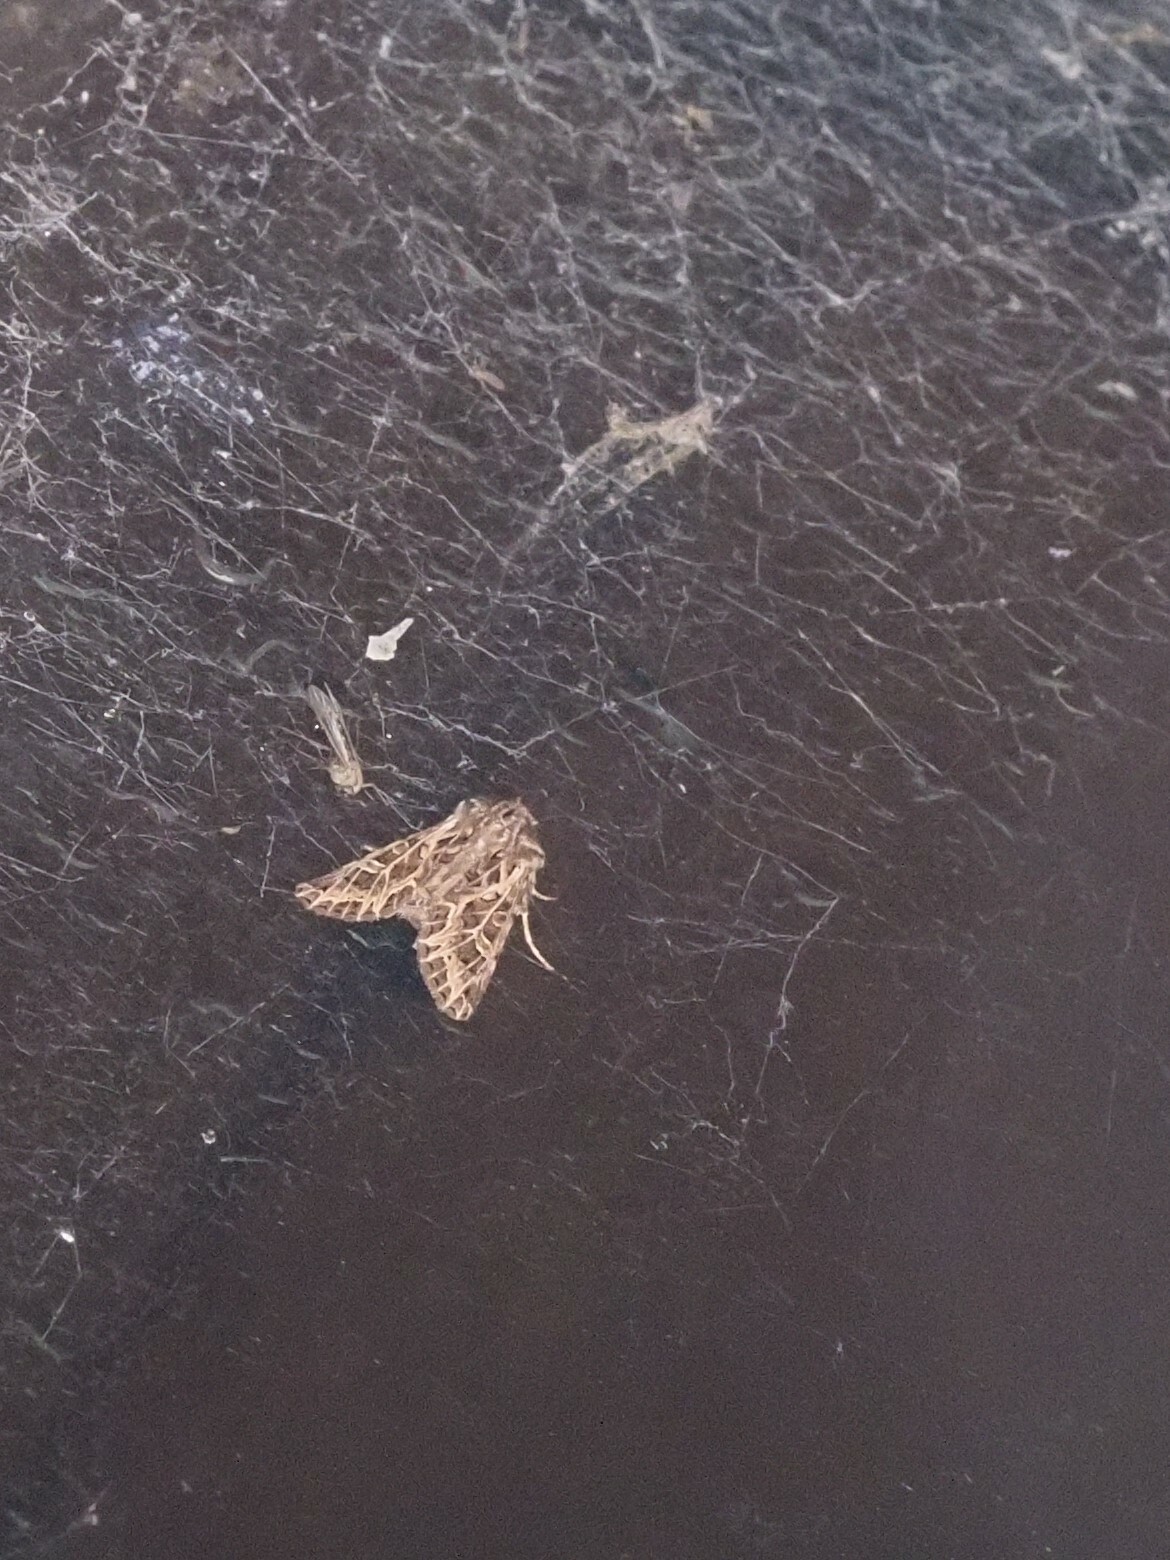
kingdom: Animalia
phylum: Arthropoda
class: Insecta
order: Lepidoptera
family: Noctuidae
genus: Ichneutica
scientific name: Ichneutica
